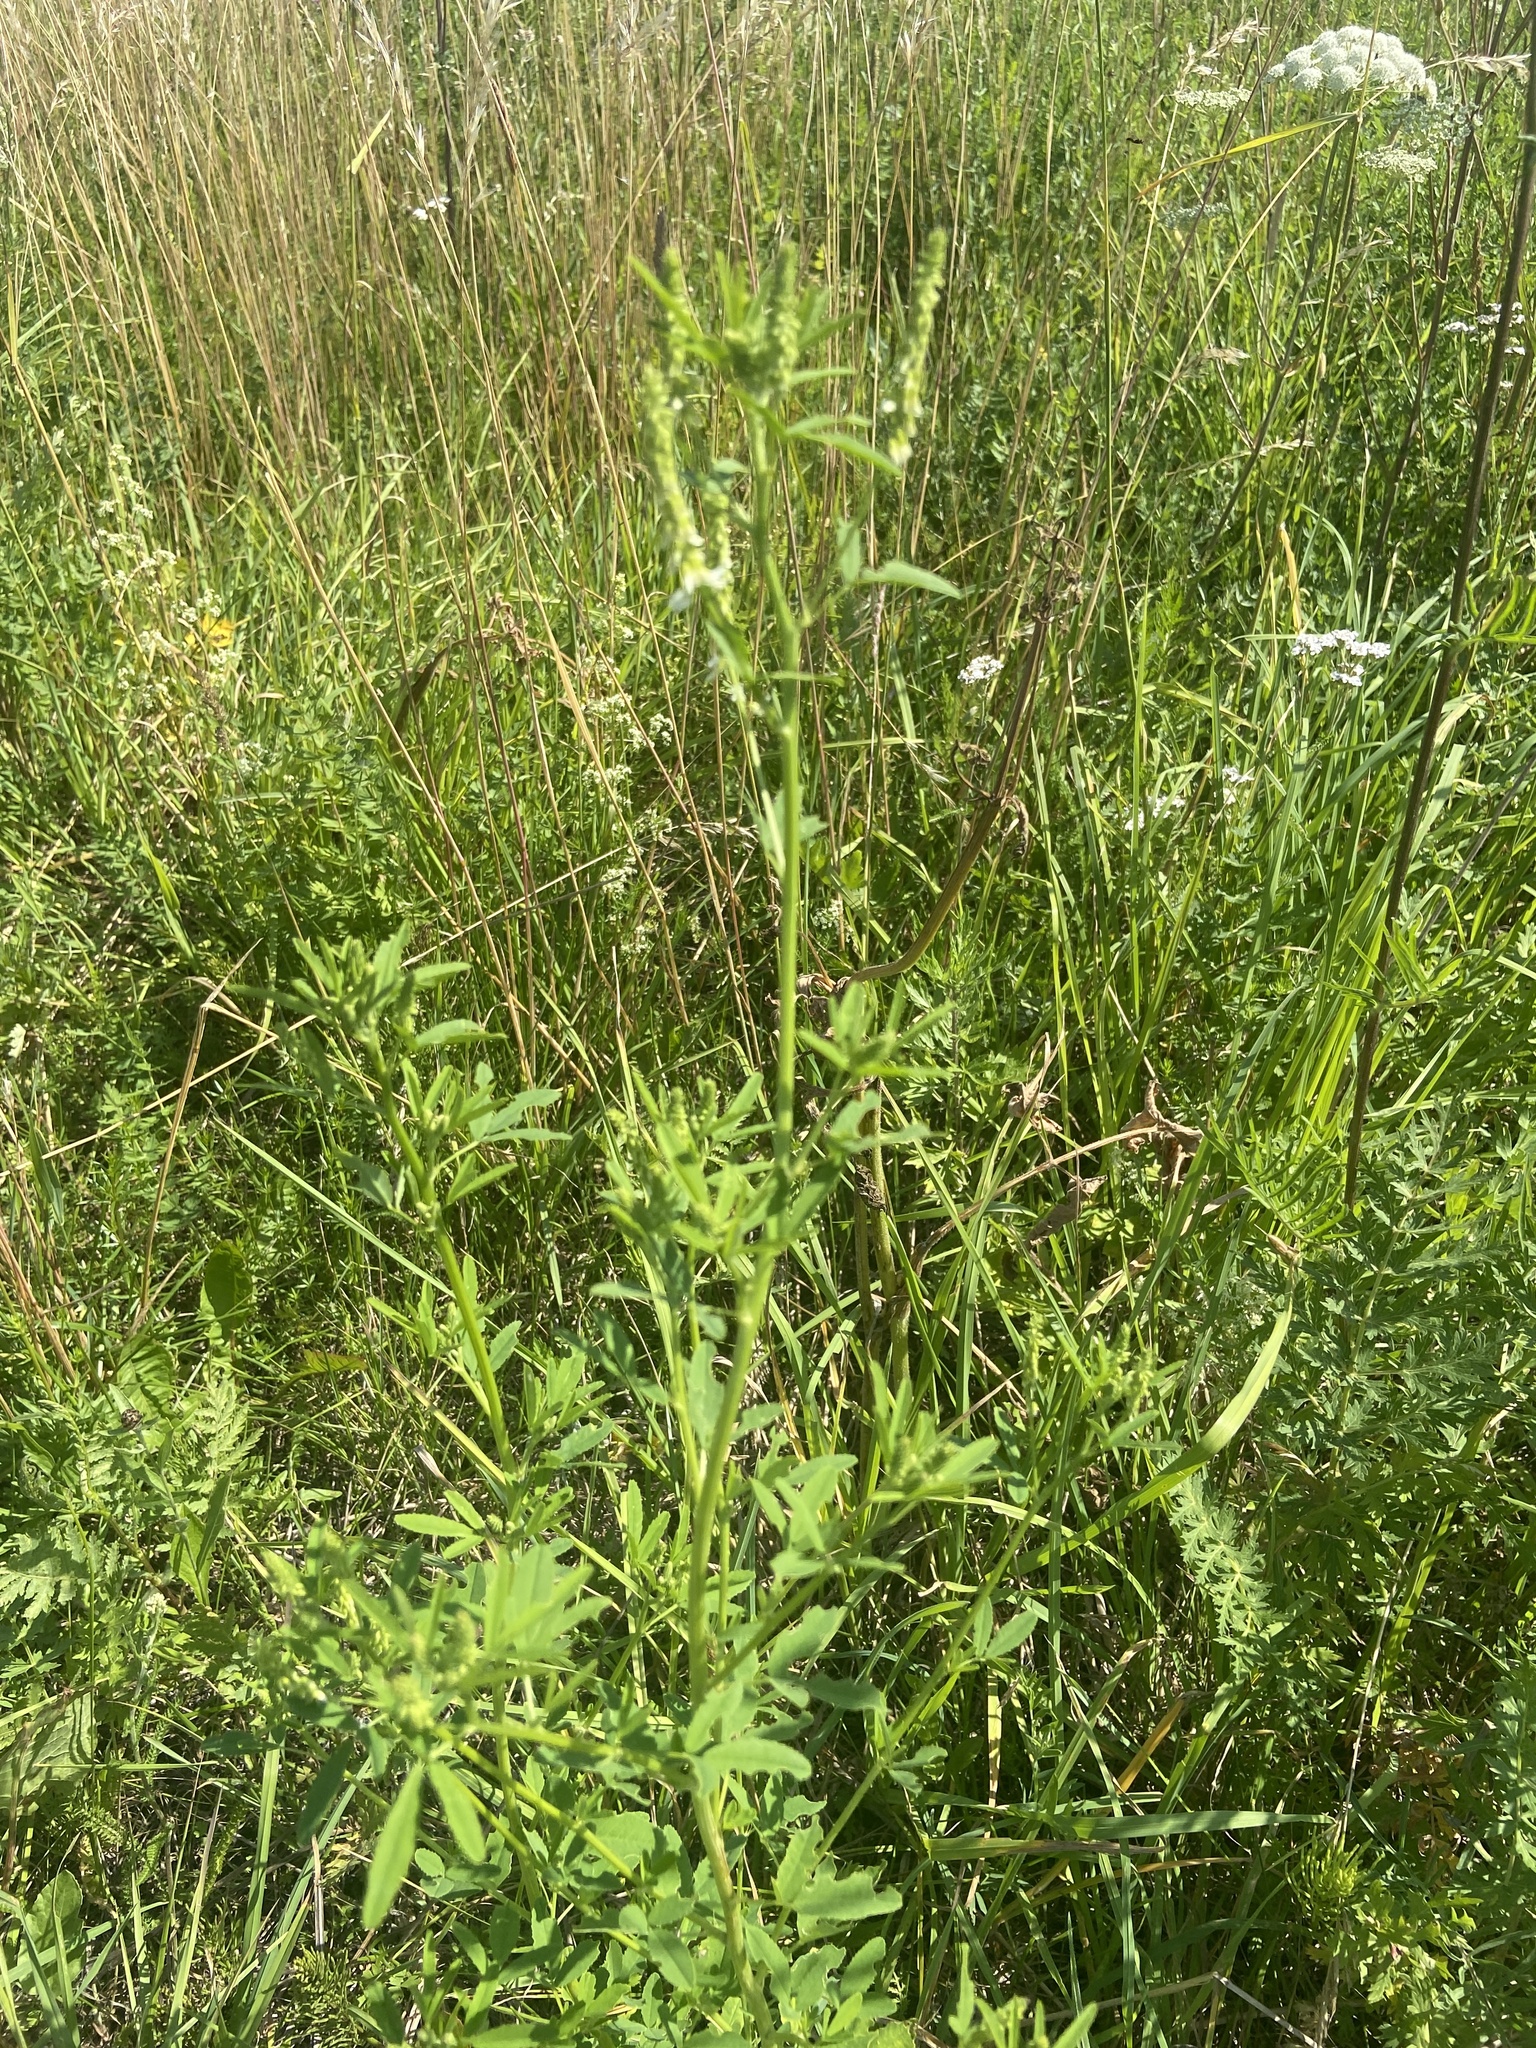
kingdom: Plantae
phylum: Tracheophyta
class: Magnoliopsida
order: Fabales
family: Fabaceae
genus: Melilotus
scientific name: Melilotus albus
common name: White melilot
